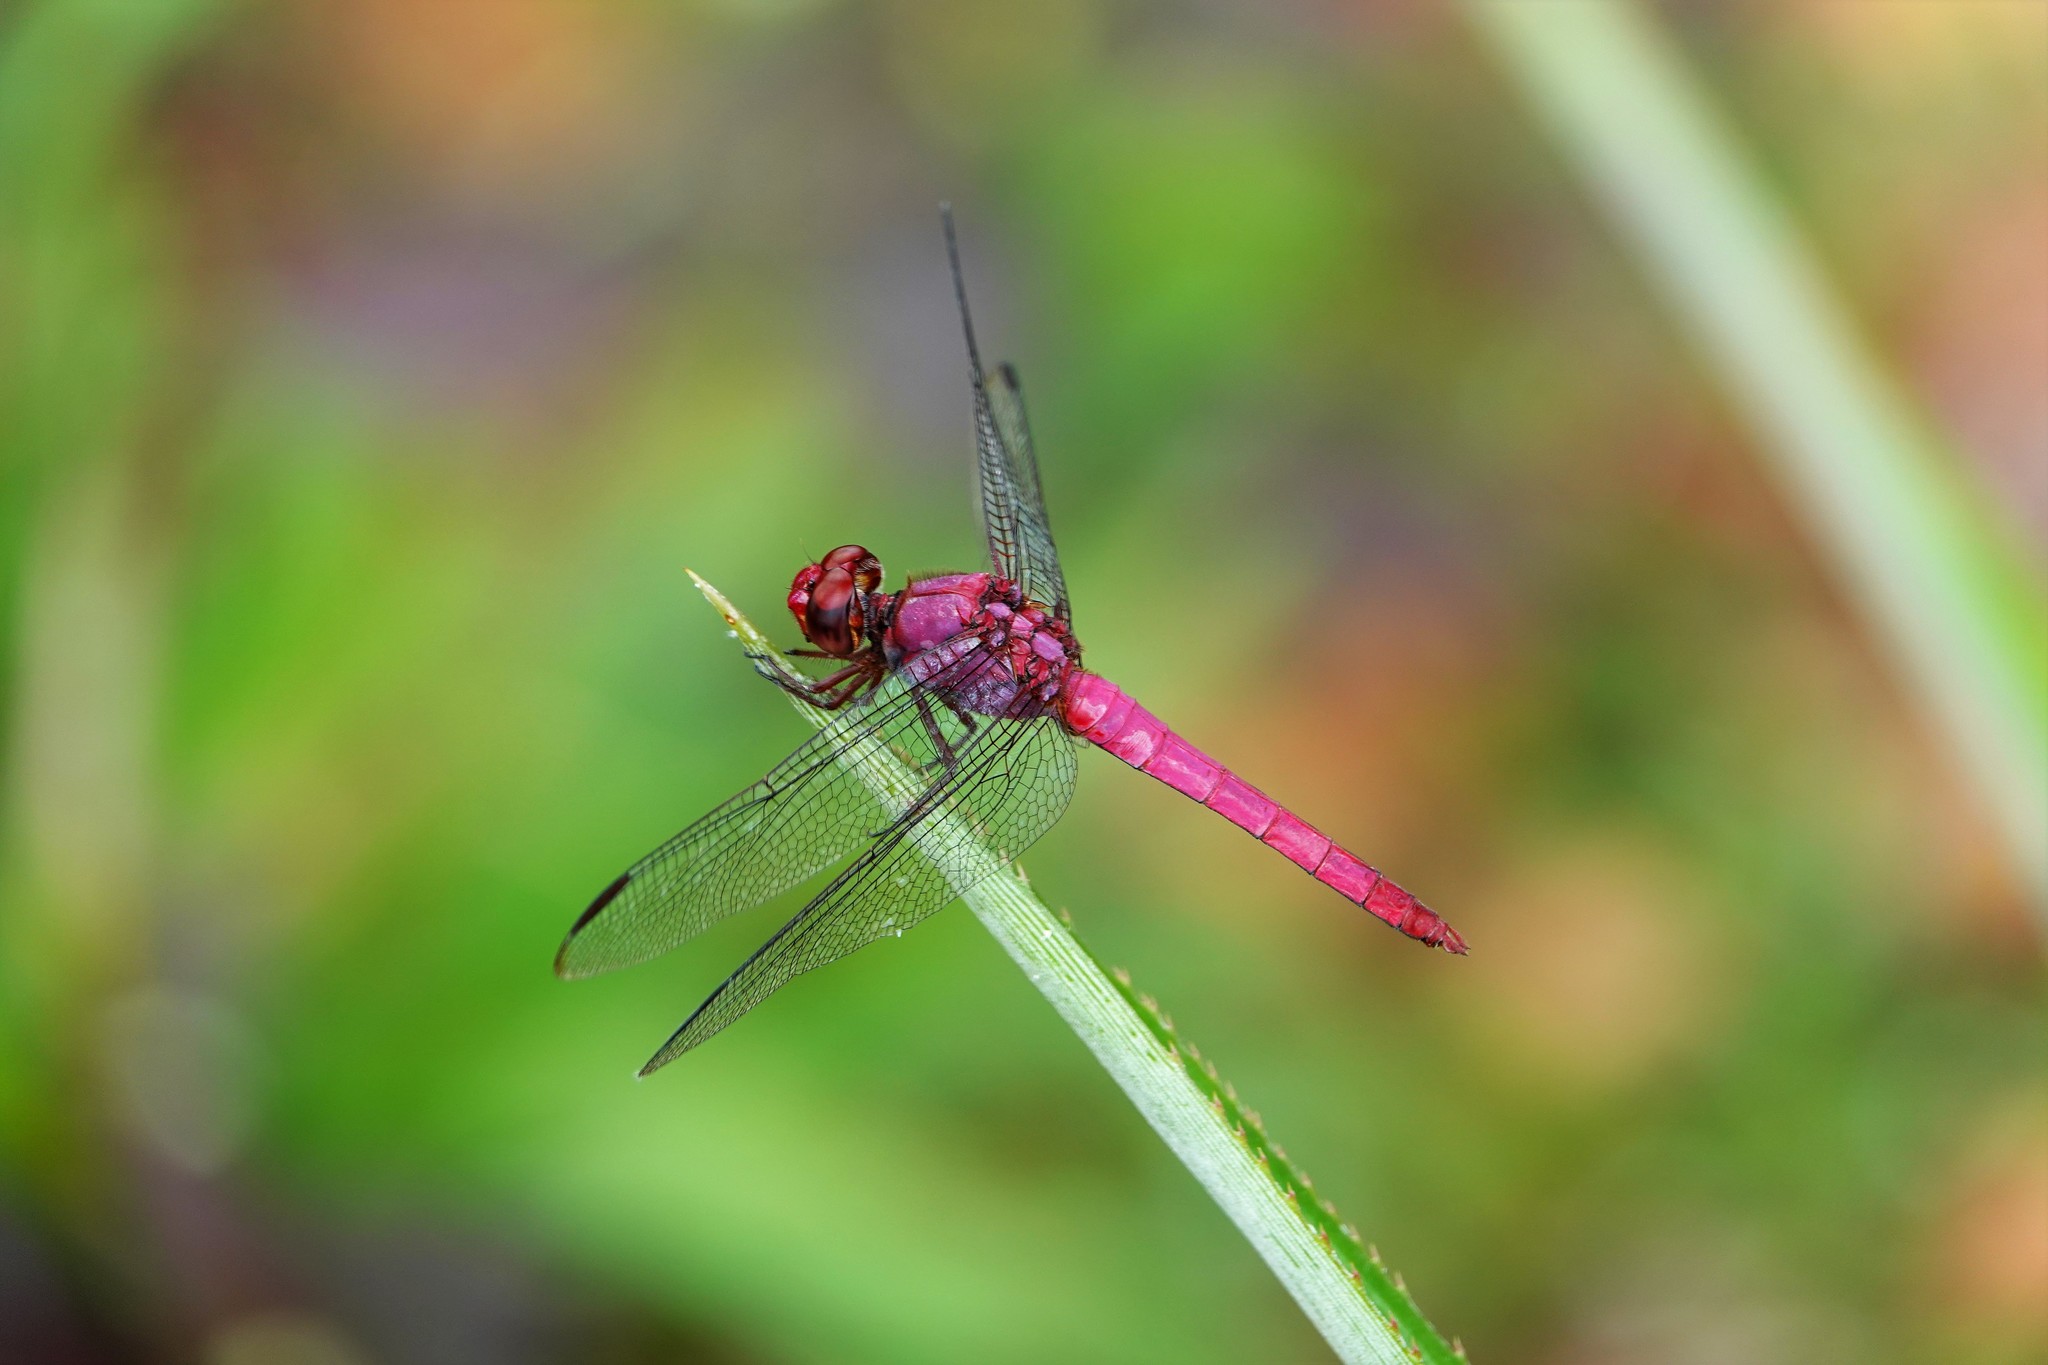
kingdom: Animalia
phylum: Arthropoda
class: Insecta
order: Odonata
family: Libellulidae
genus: Orthemis
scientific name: Orthemis discolor
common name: Carmine skimmer
